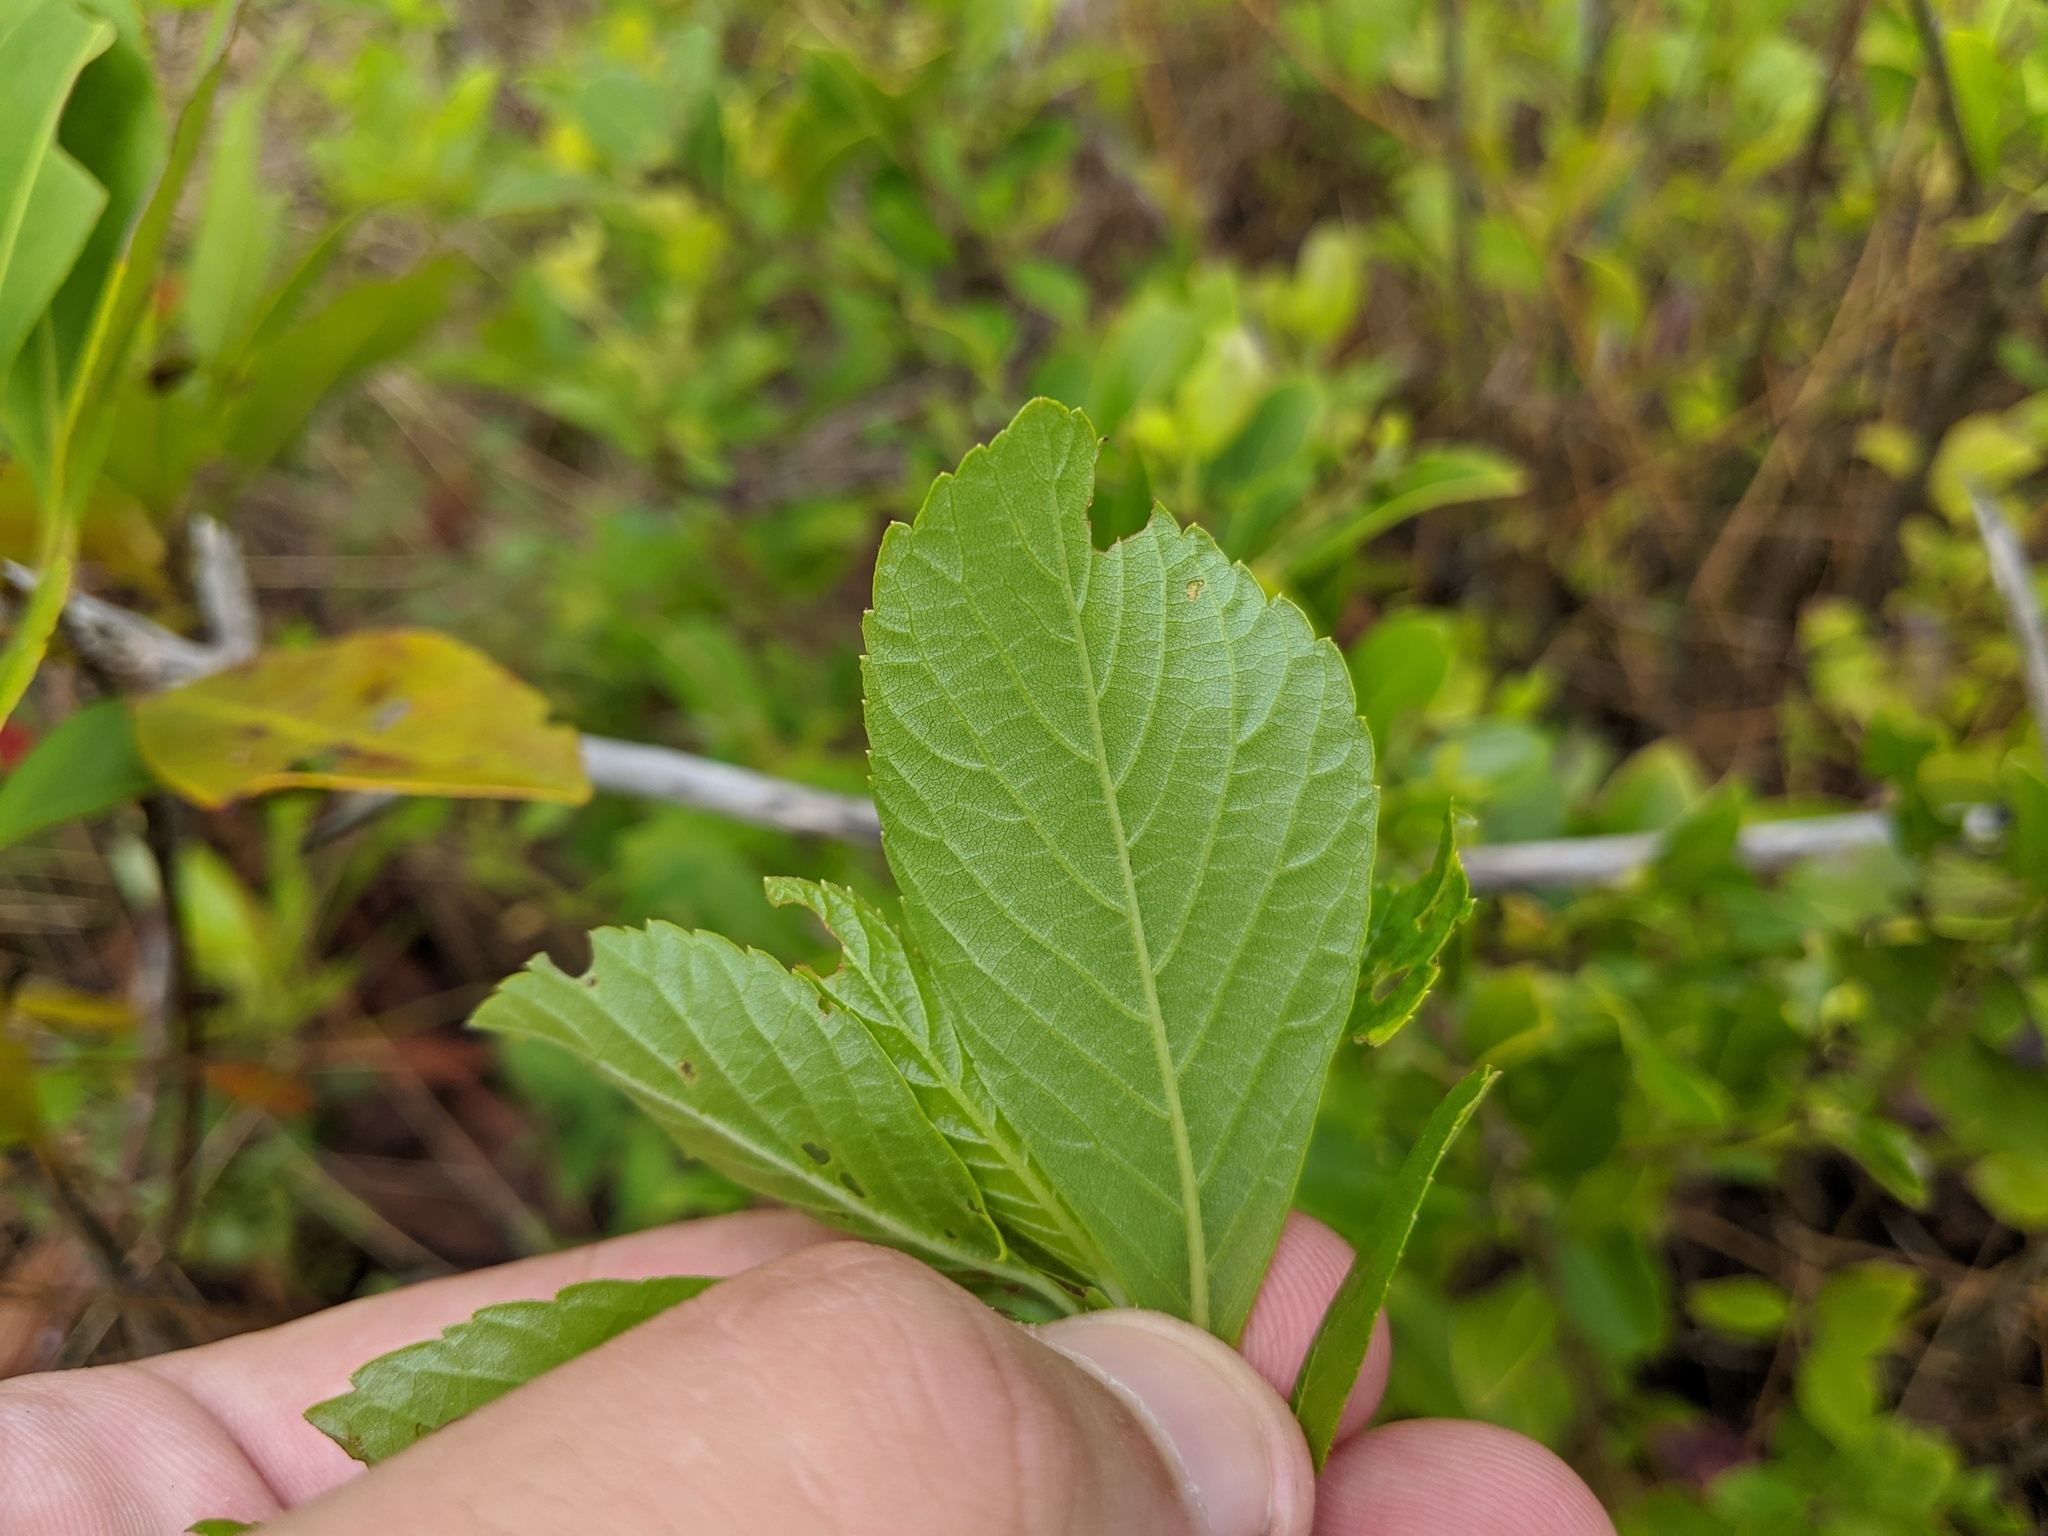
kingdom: Plantae
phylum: Tracheophyta
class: Magnoliopsida
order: Ericales
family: Clethraceae
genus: Clethra
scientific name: Clethra alnifolia
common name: Sweet pepperbush
